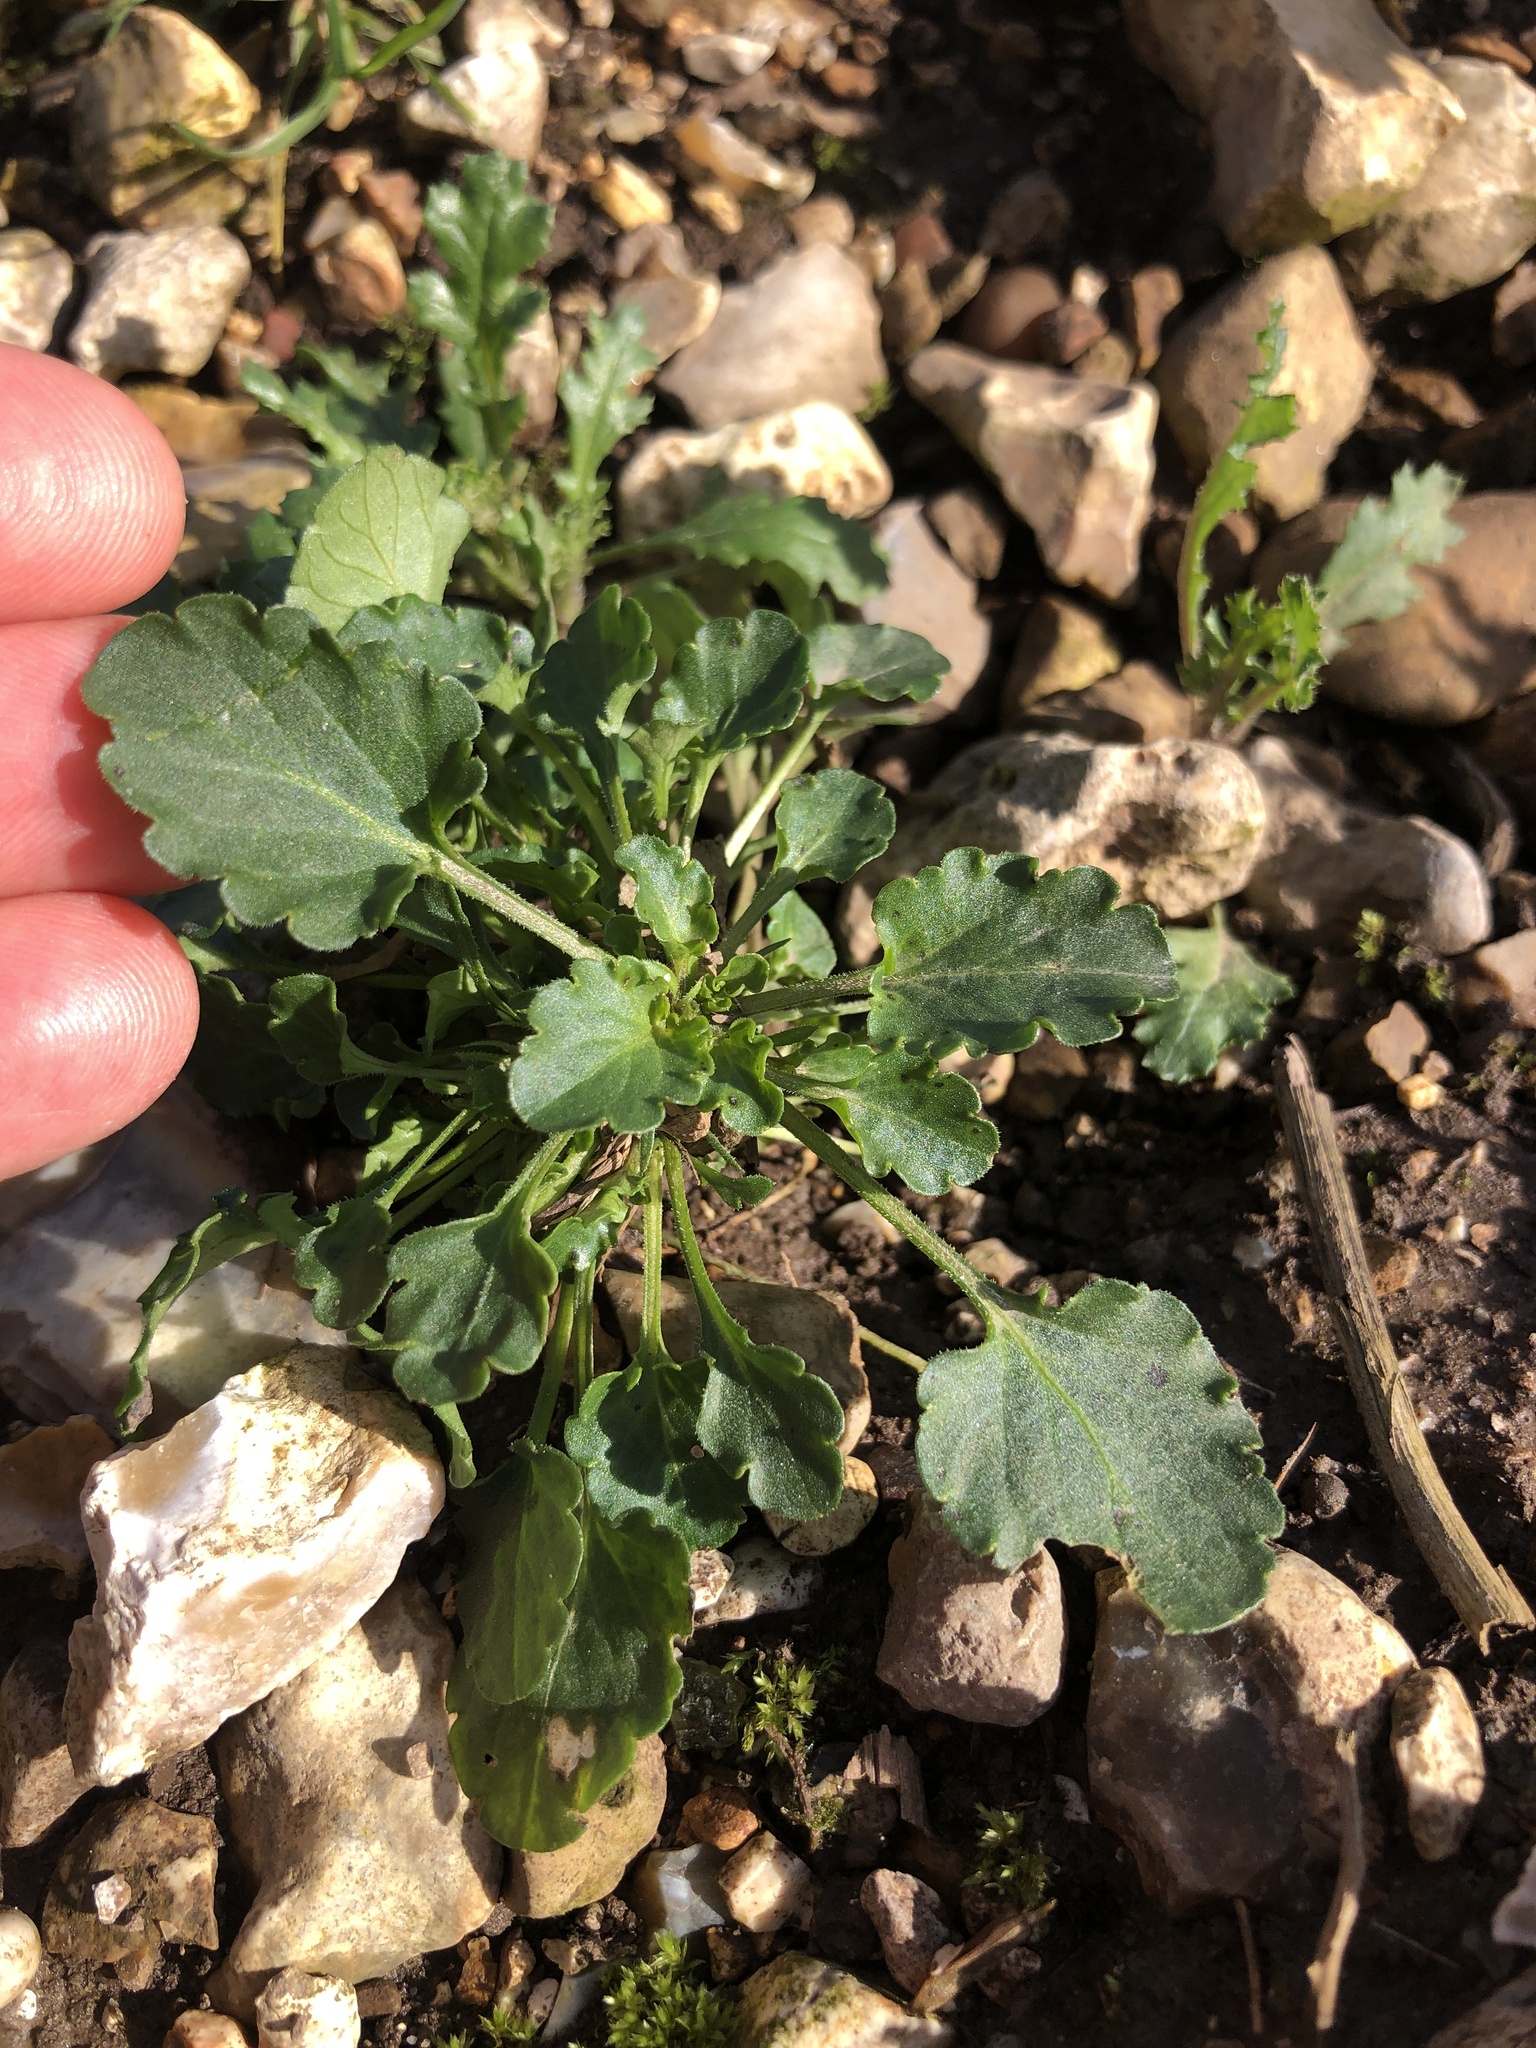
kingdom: Plantae
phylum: Tracheophyta
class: Magnoliopsida
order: Malpighiales
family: Violaceae
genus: Viola
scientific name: Viola arvensis
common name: Field pansy
